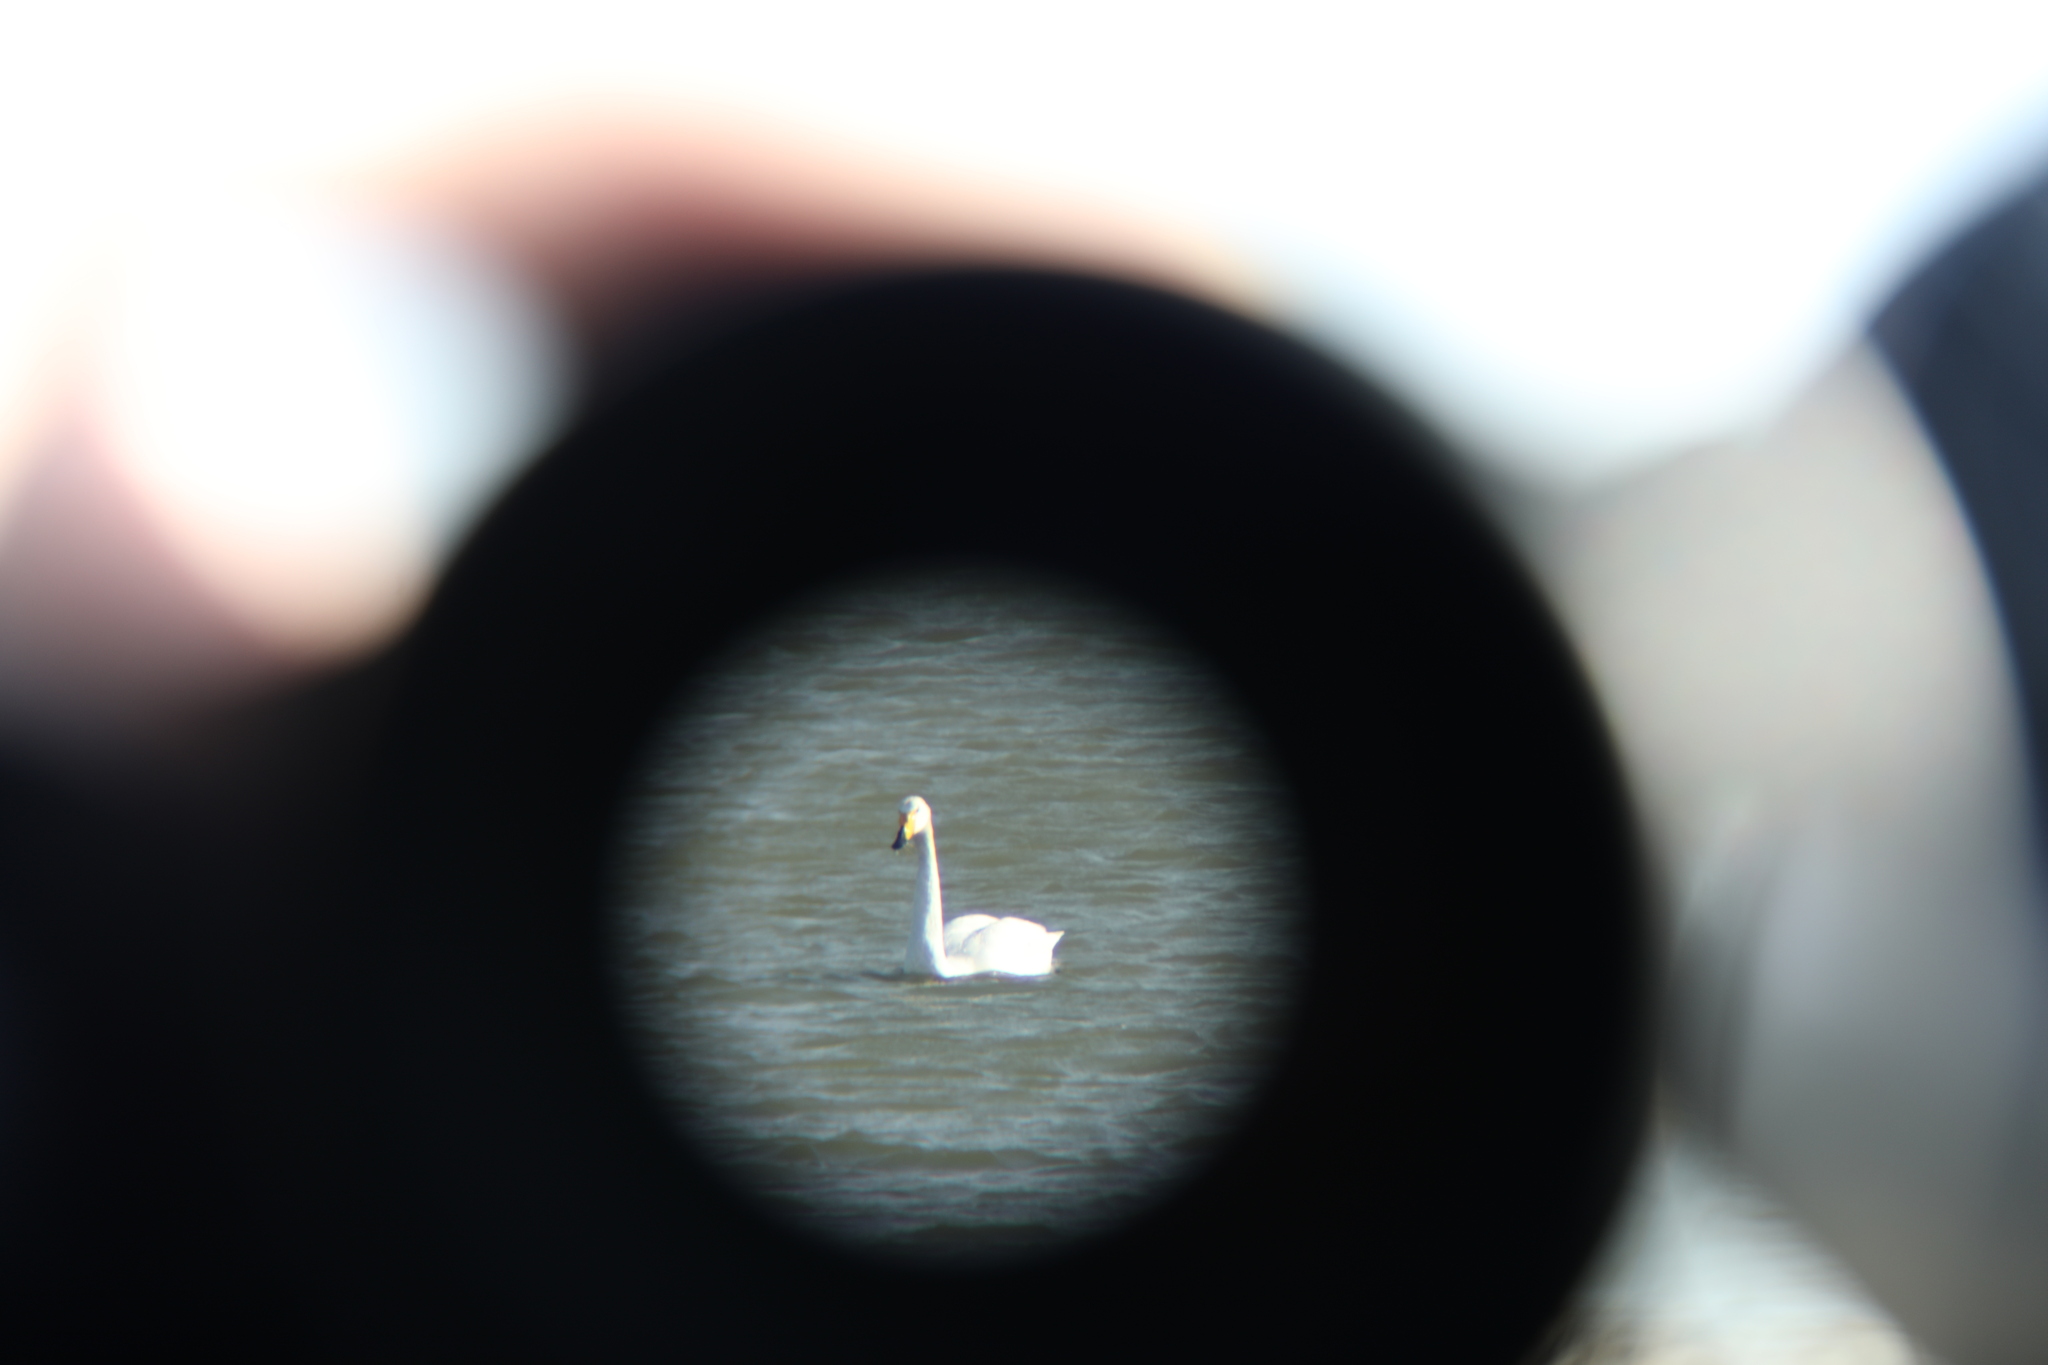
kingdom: Animalia
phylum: Chordata
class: Aves
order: Anseriformes
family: Anatidae
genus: Cygnus
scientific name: Cygnus cygnus
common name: Whooper swan
